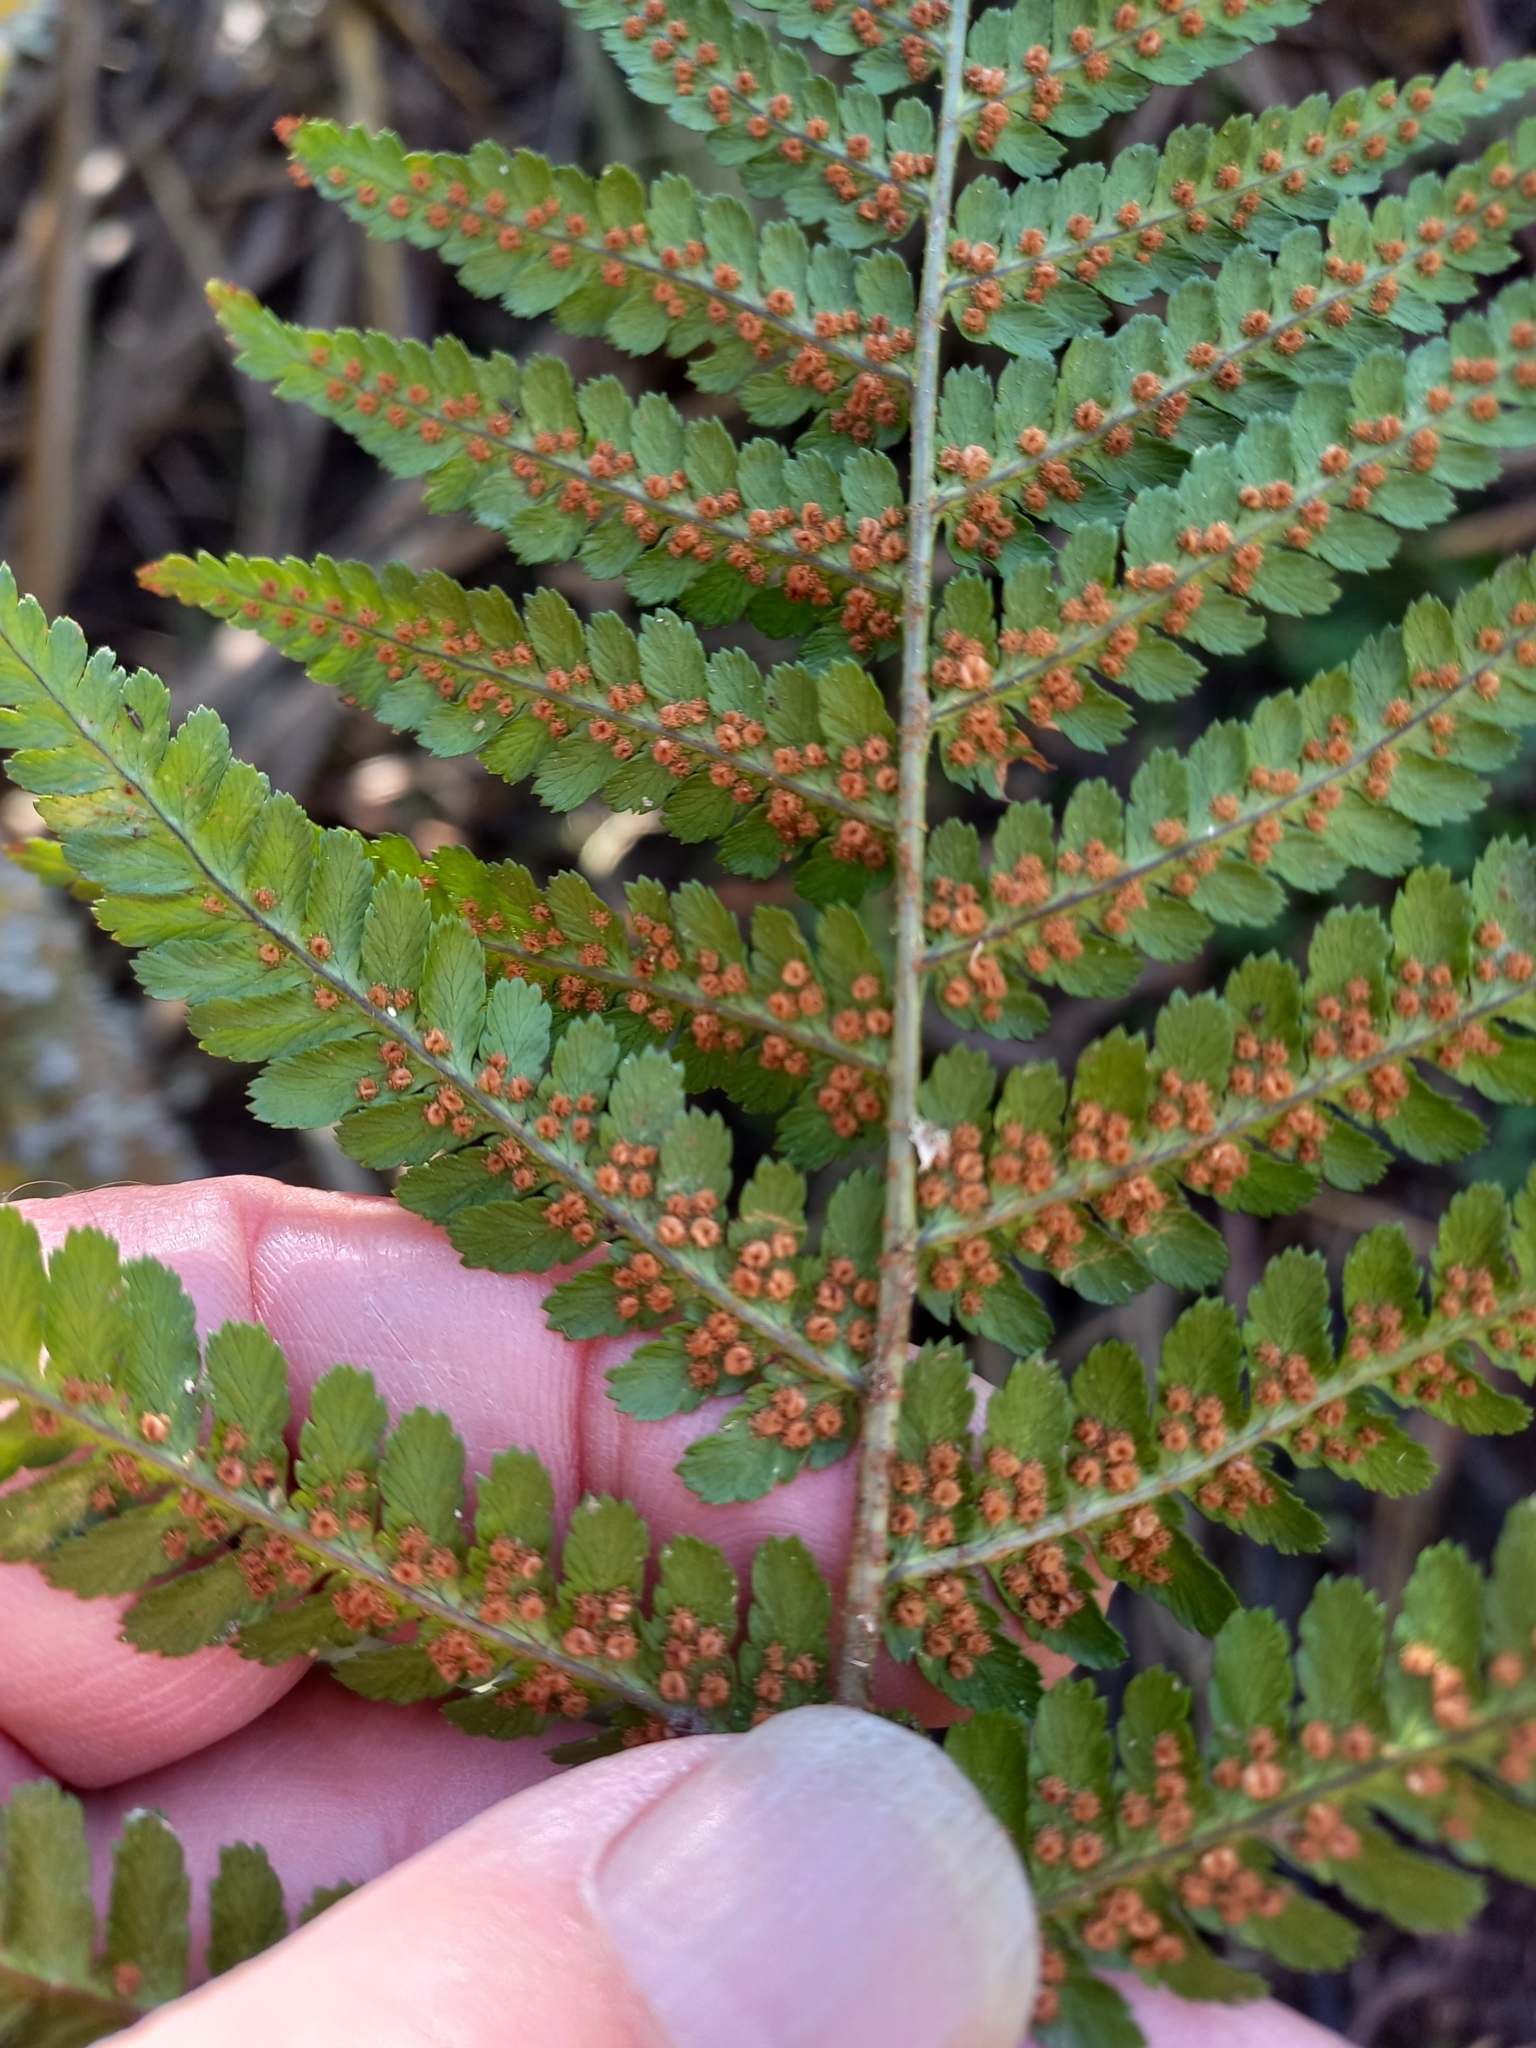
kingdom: Plantae
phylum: Tracheophyta
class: Polypodiopsida
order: Polypodiales
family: Dryopteridaceae
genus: Dryopteris
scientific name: Dryopteris filix-mas
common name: Male fern
